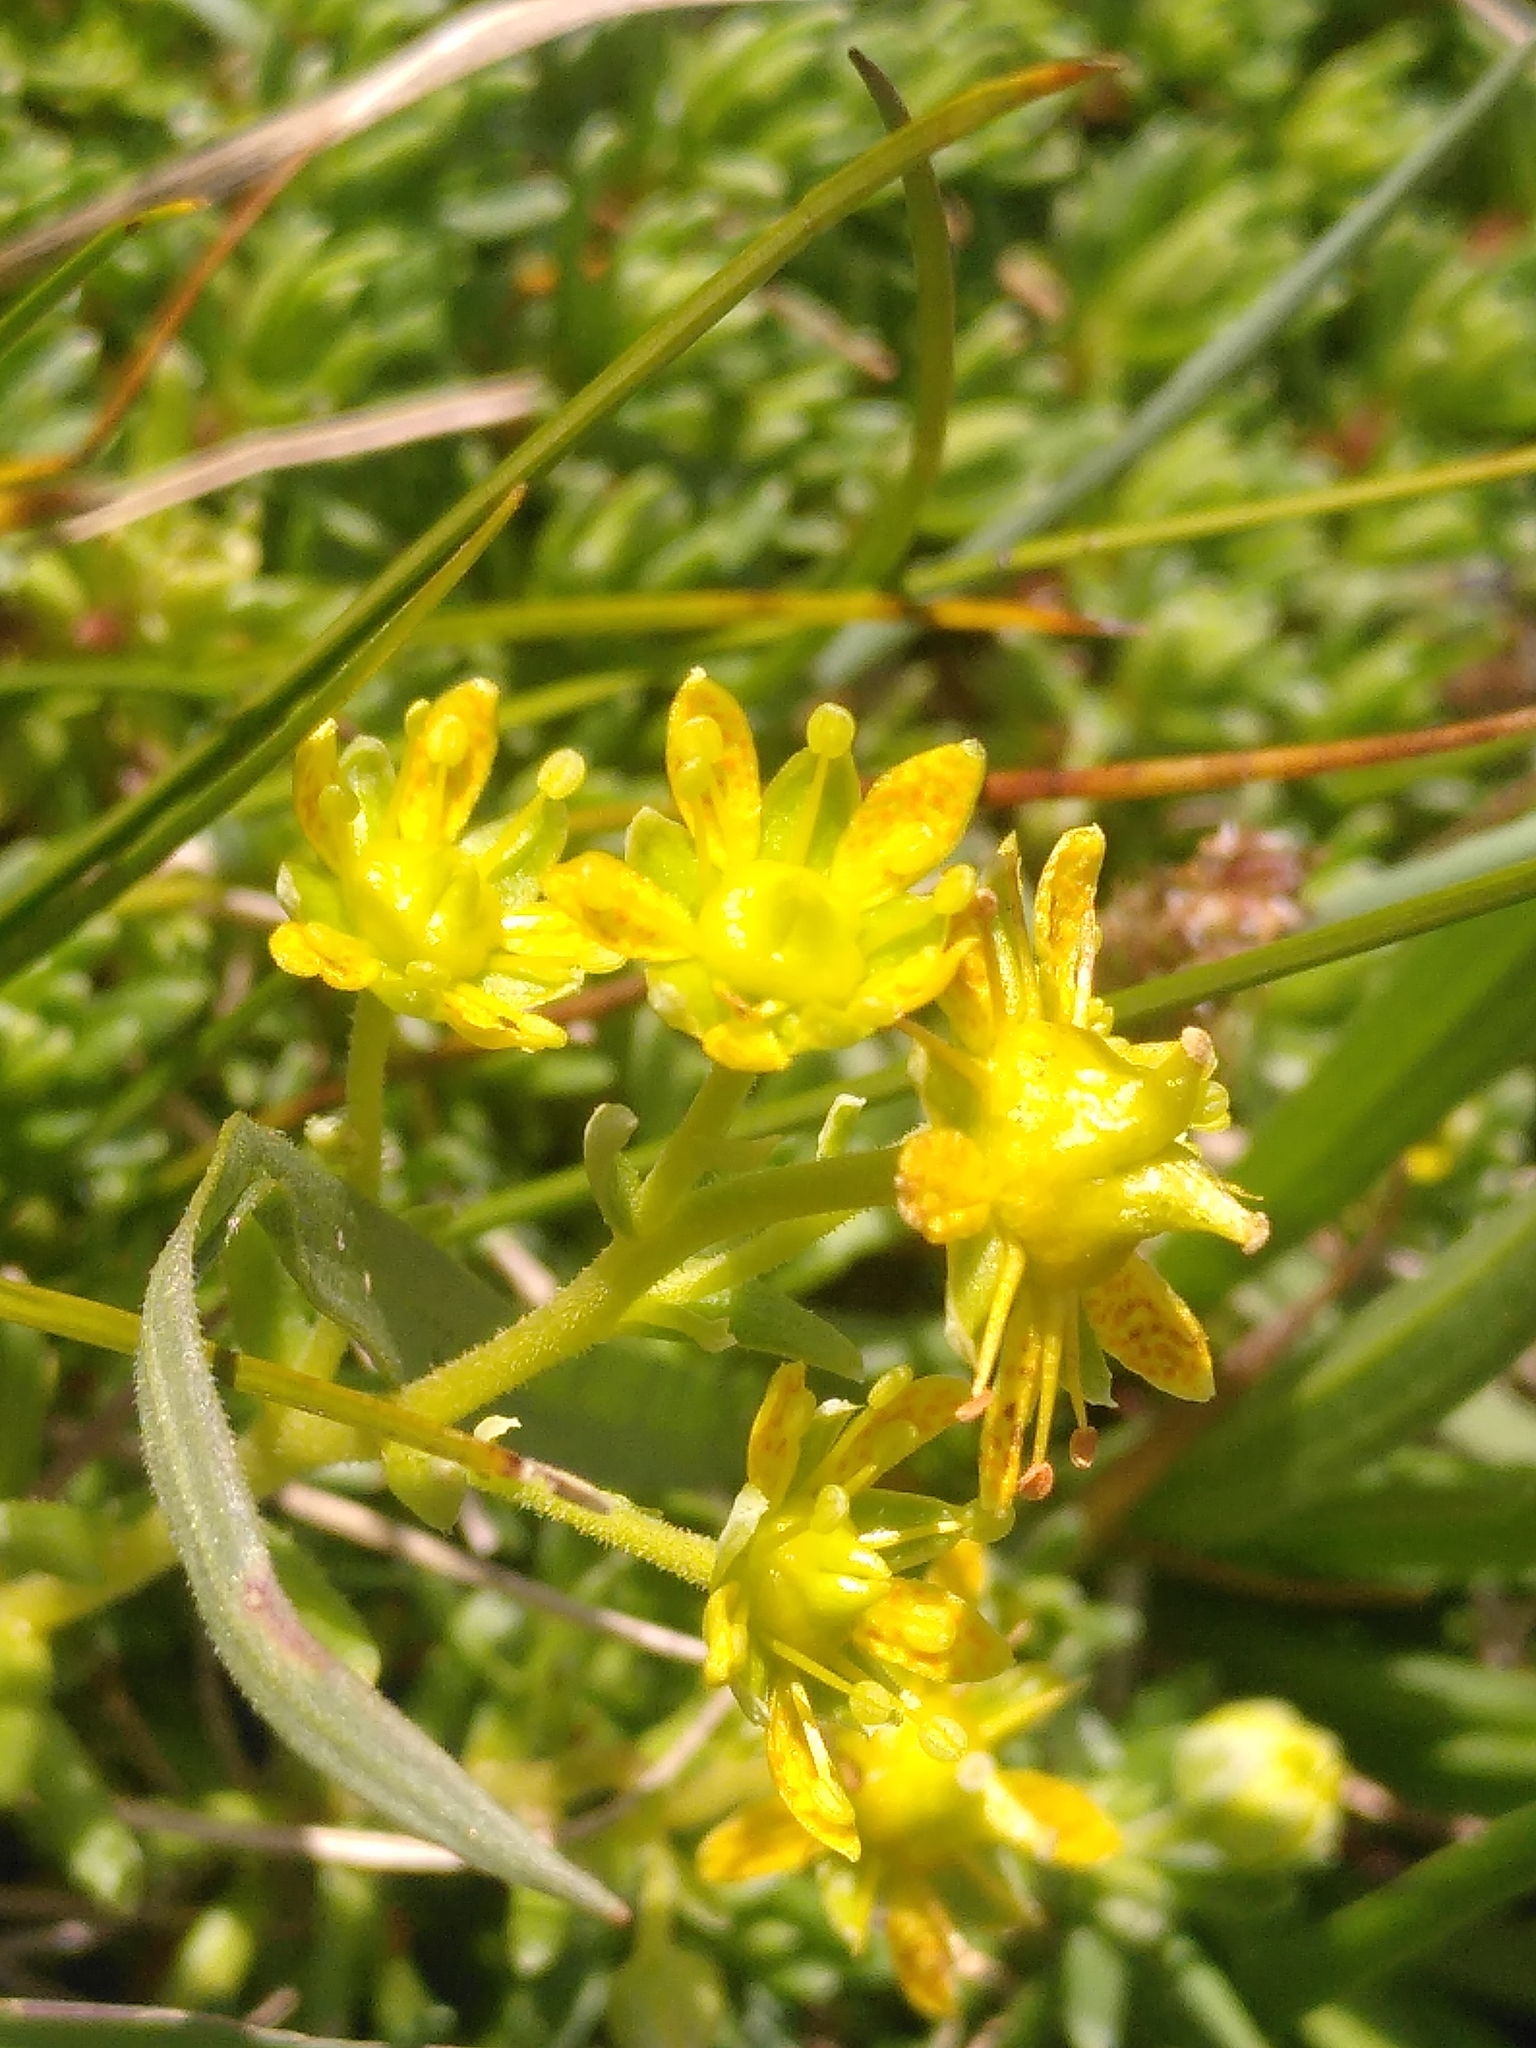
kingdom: Plantae
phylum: Tracheophyta
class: Magnoliopsida
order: Saxifragales
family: Saxifragaceae
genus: Saxifraga
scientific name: Saxifraga aizoides
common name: Yellow mountain saxifrage
